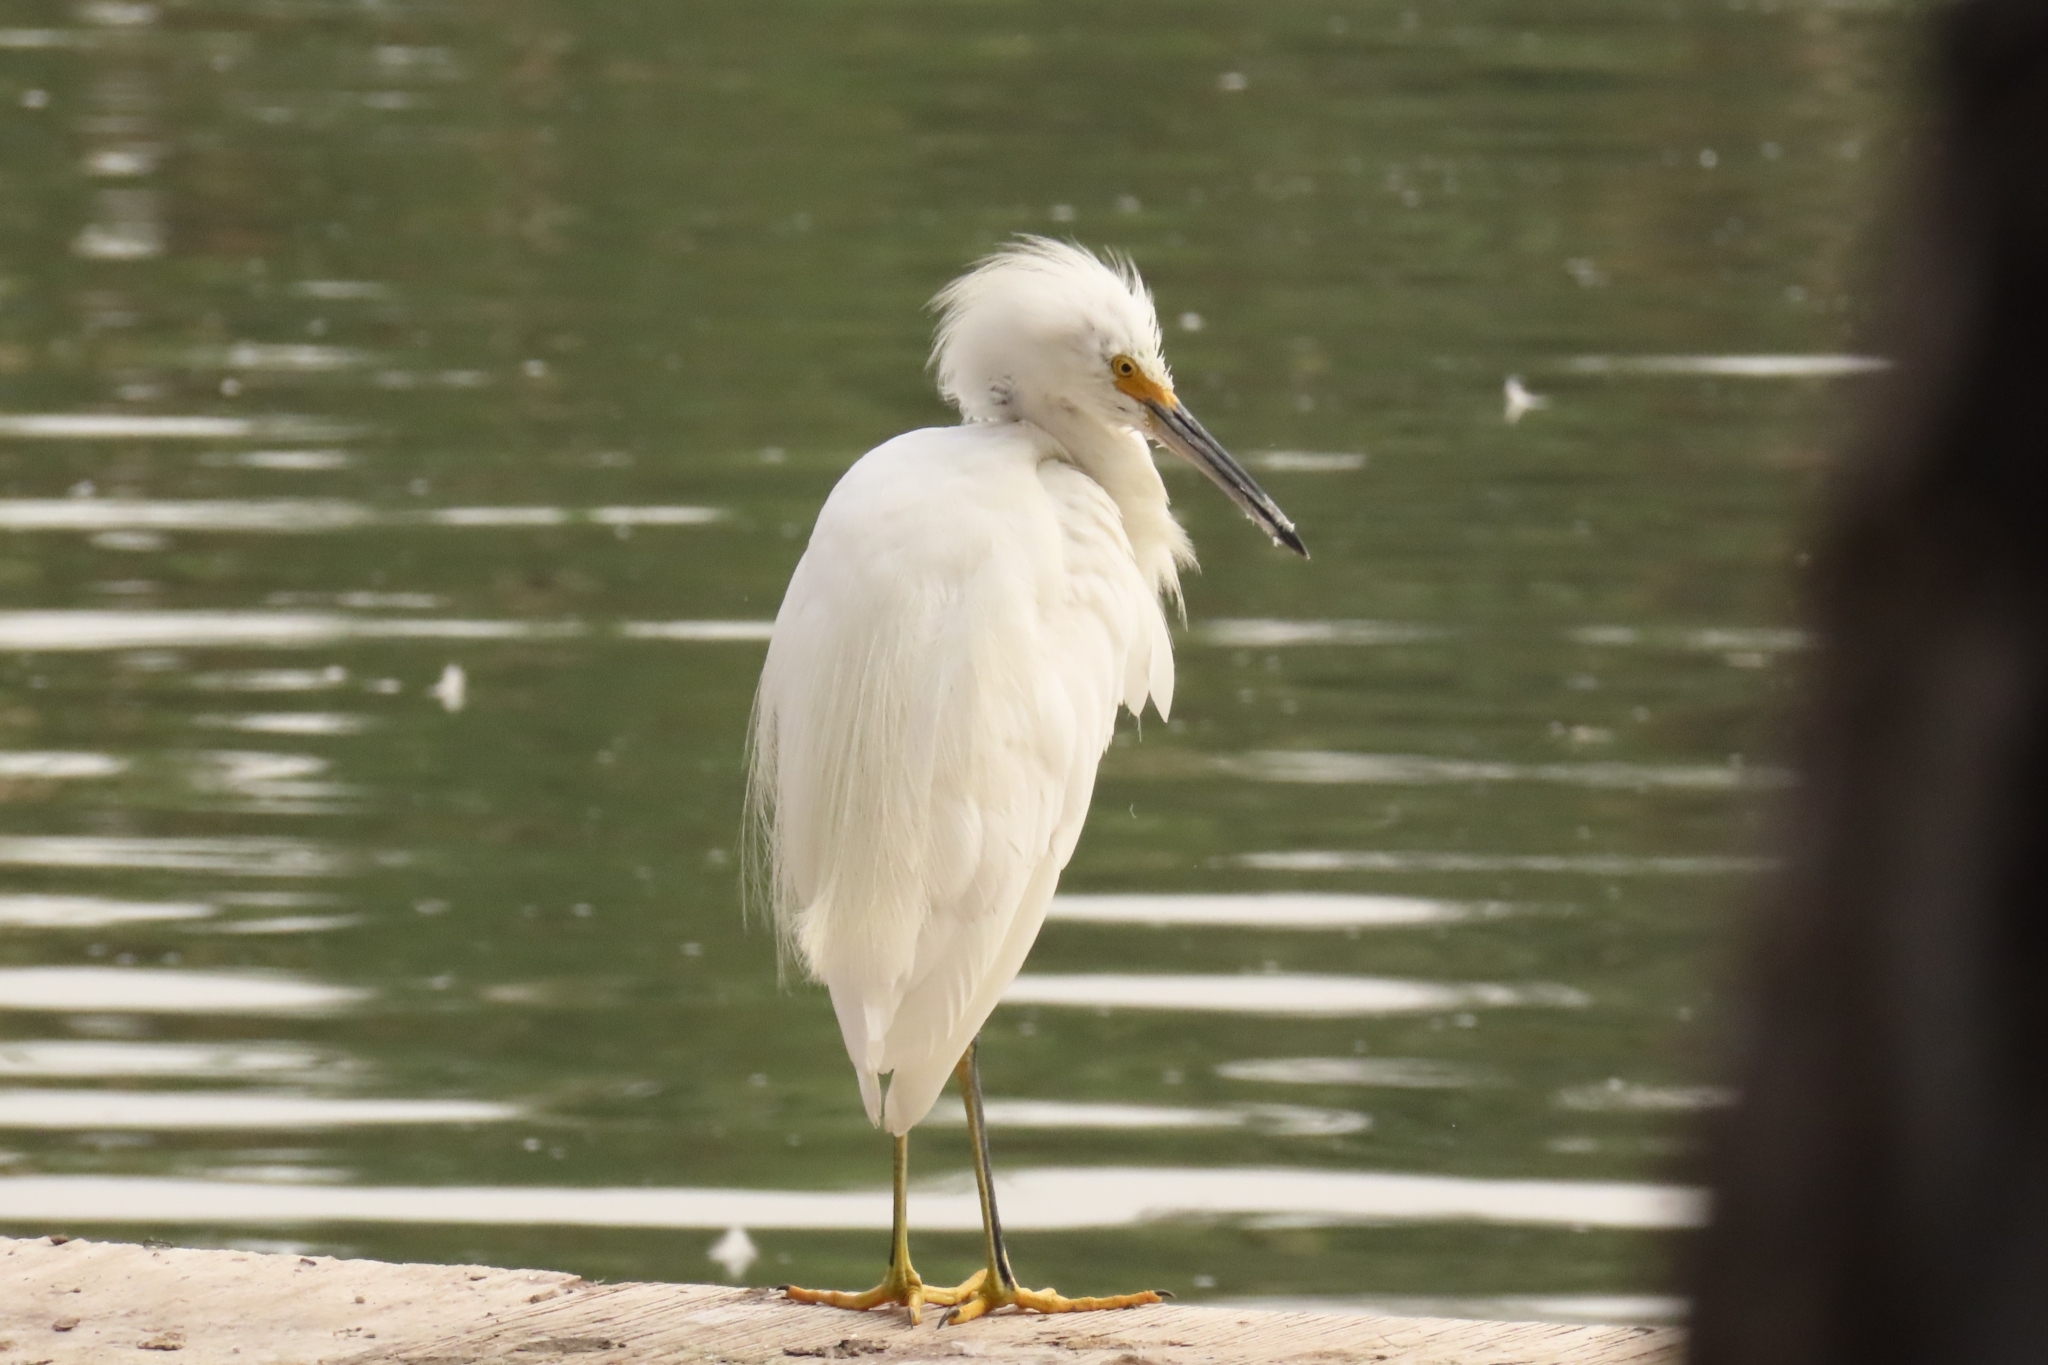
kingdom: Animalia
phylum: Chordata
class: Aves
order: Pelecaniformes
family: Ardeidae
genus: Egretta
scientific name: Egretta thula
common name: Snowy egret
